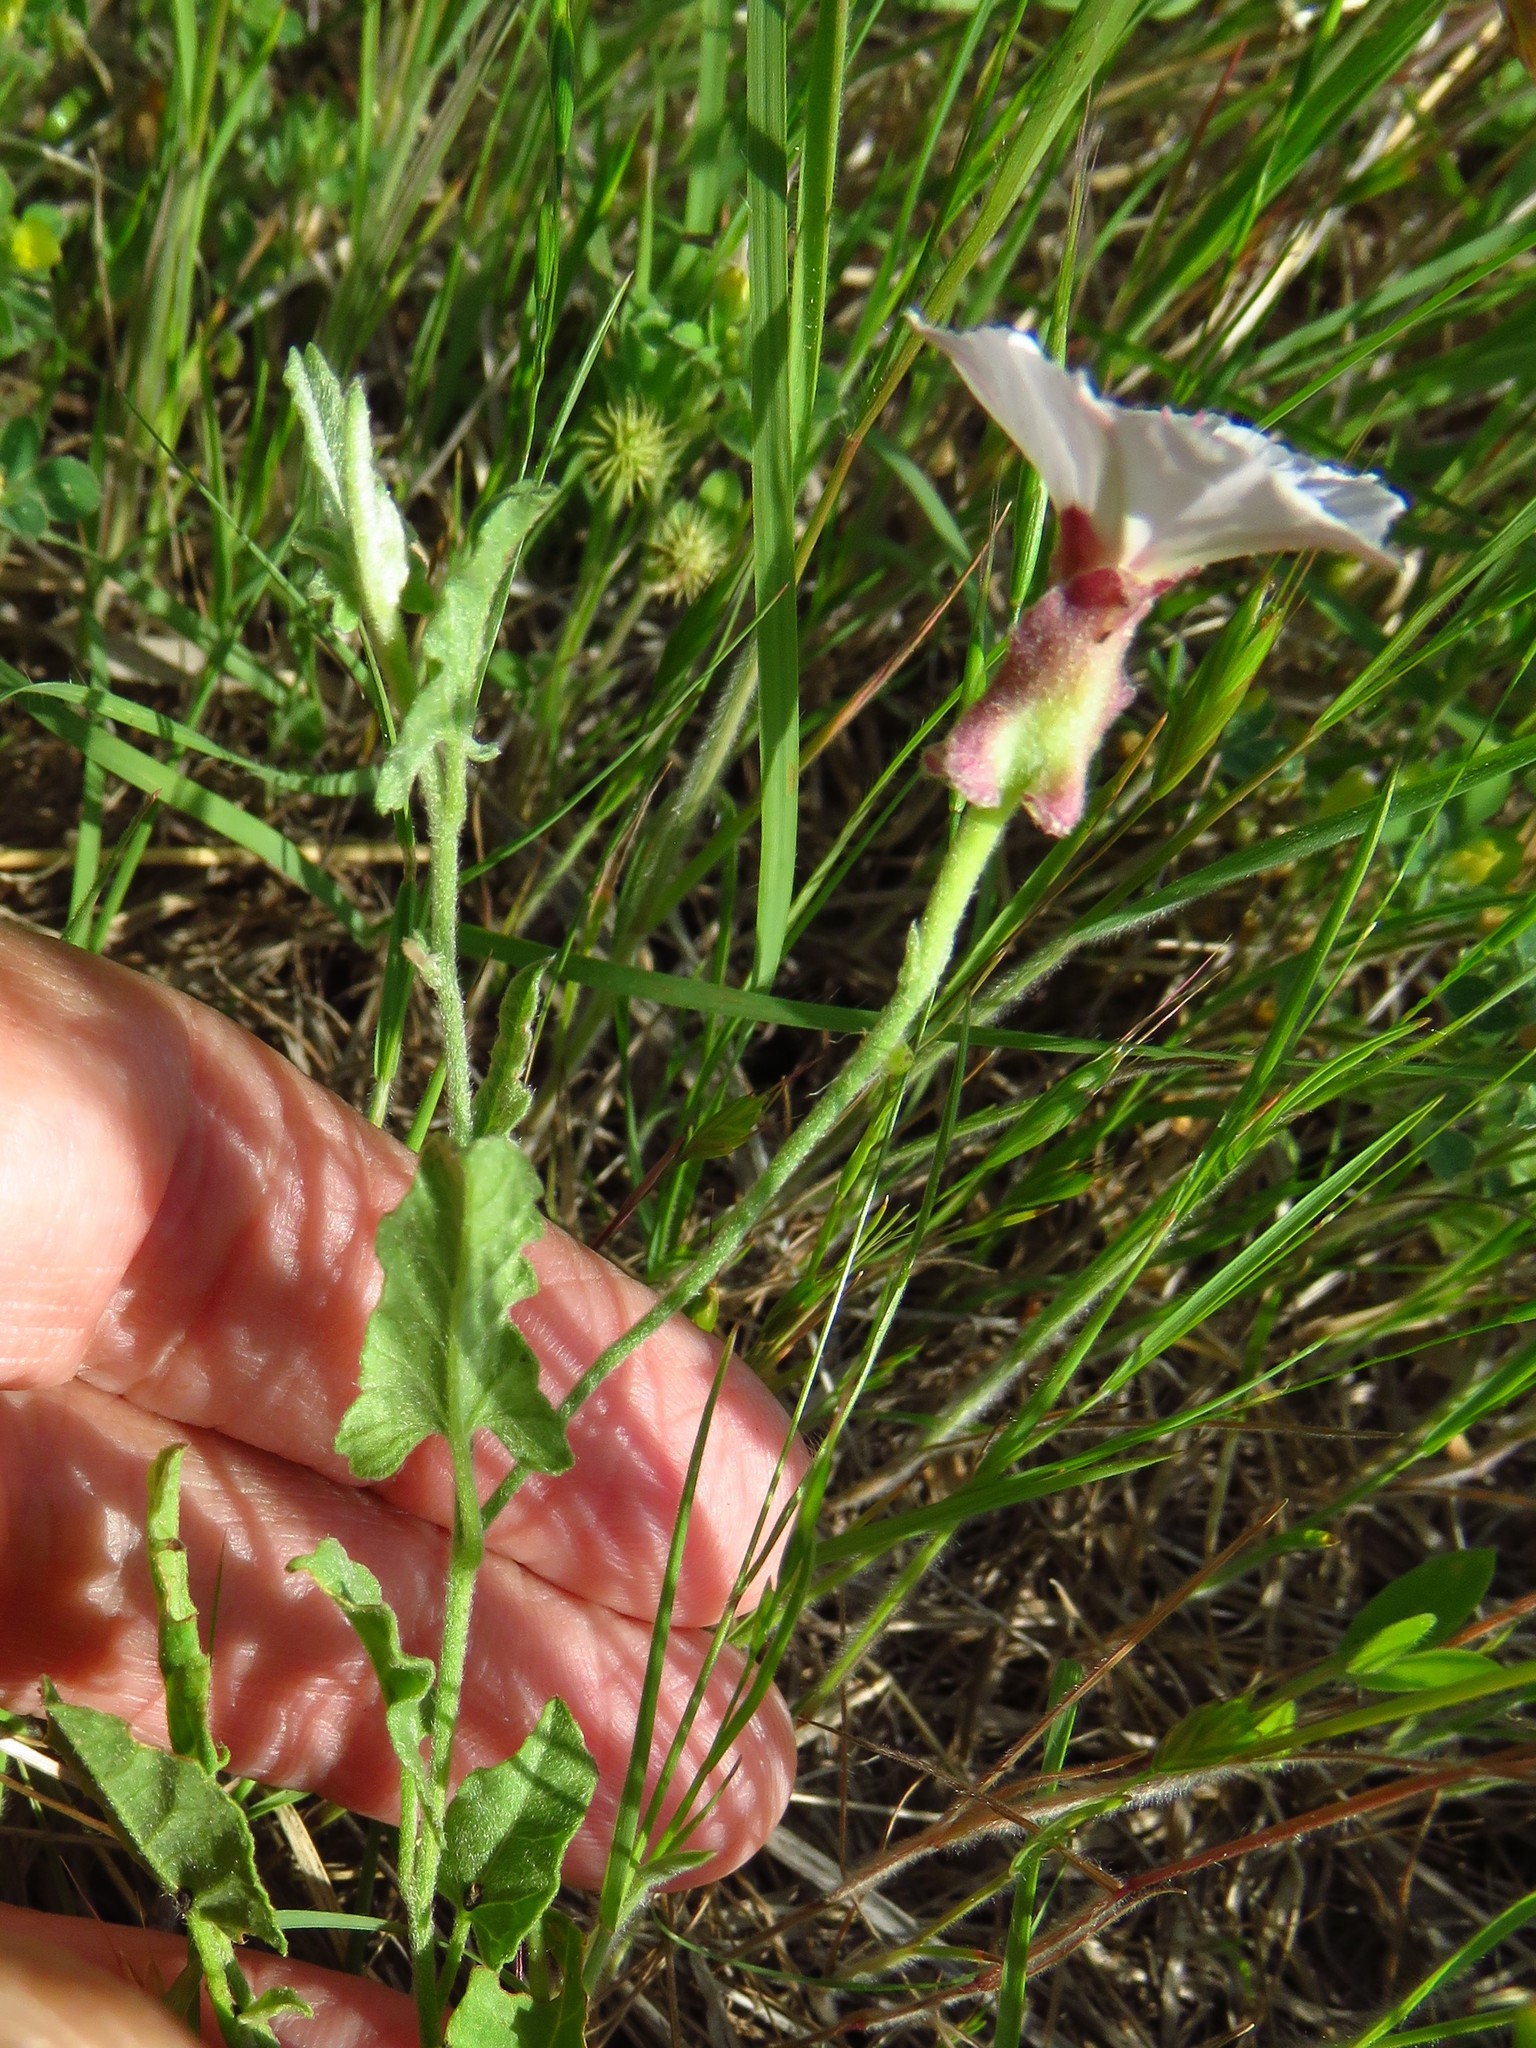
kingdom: Plantae
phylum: Tracheophyta
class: Magnoliopsida
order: Solanales
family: Convolvulaceae
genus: Convolvulus
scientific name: Convolvulus equitans
